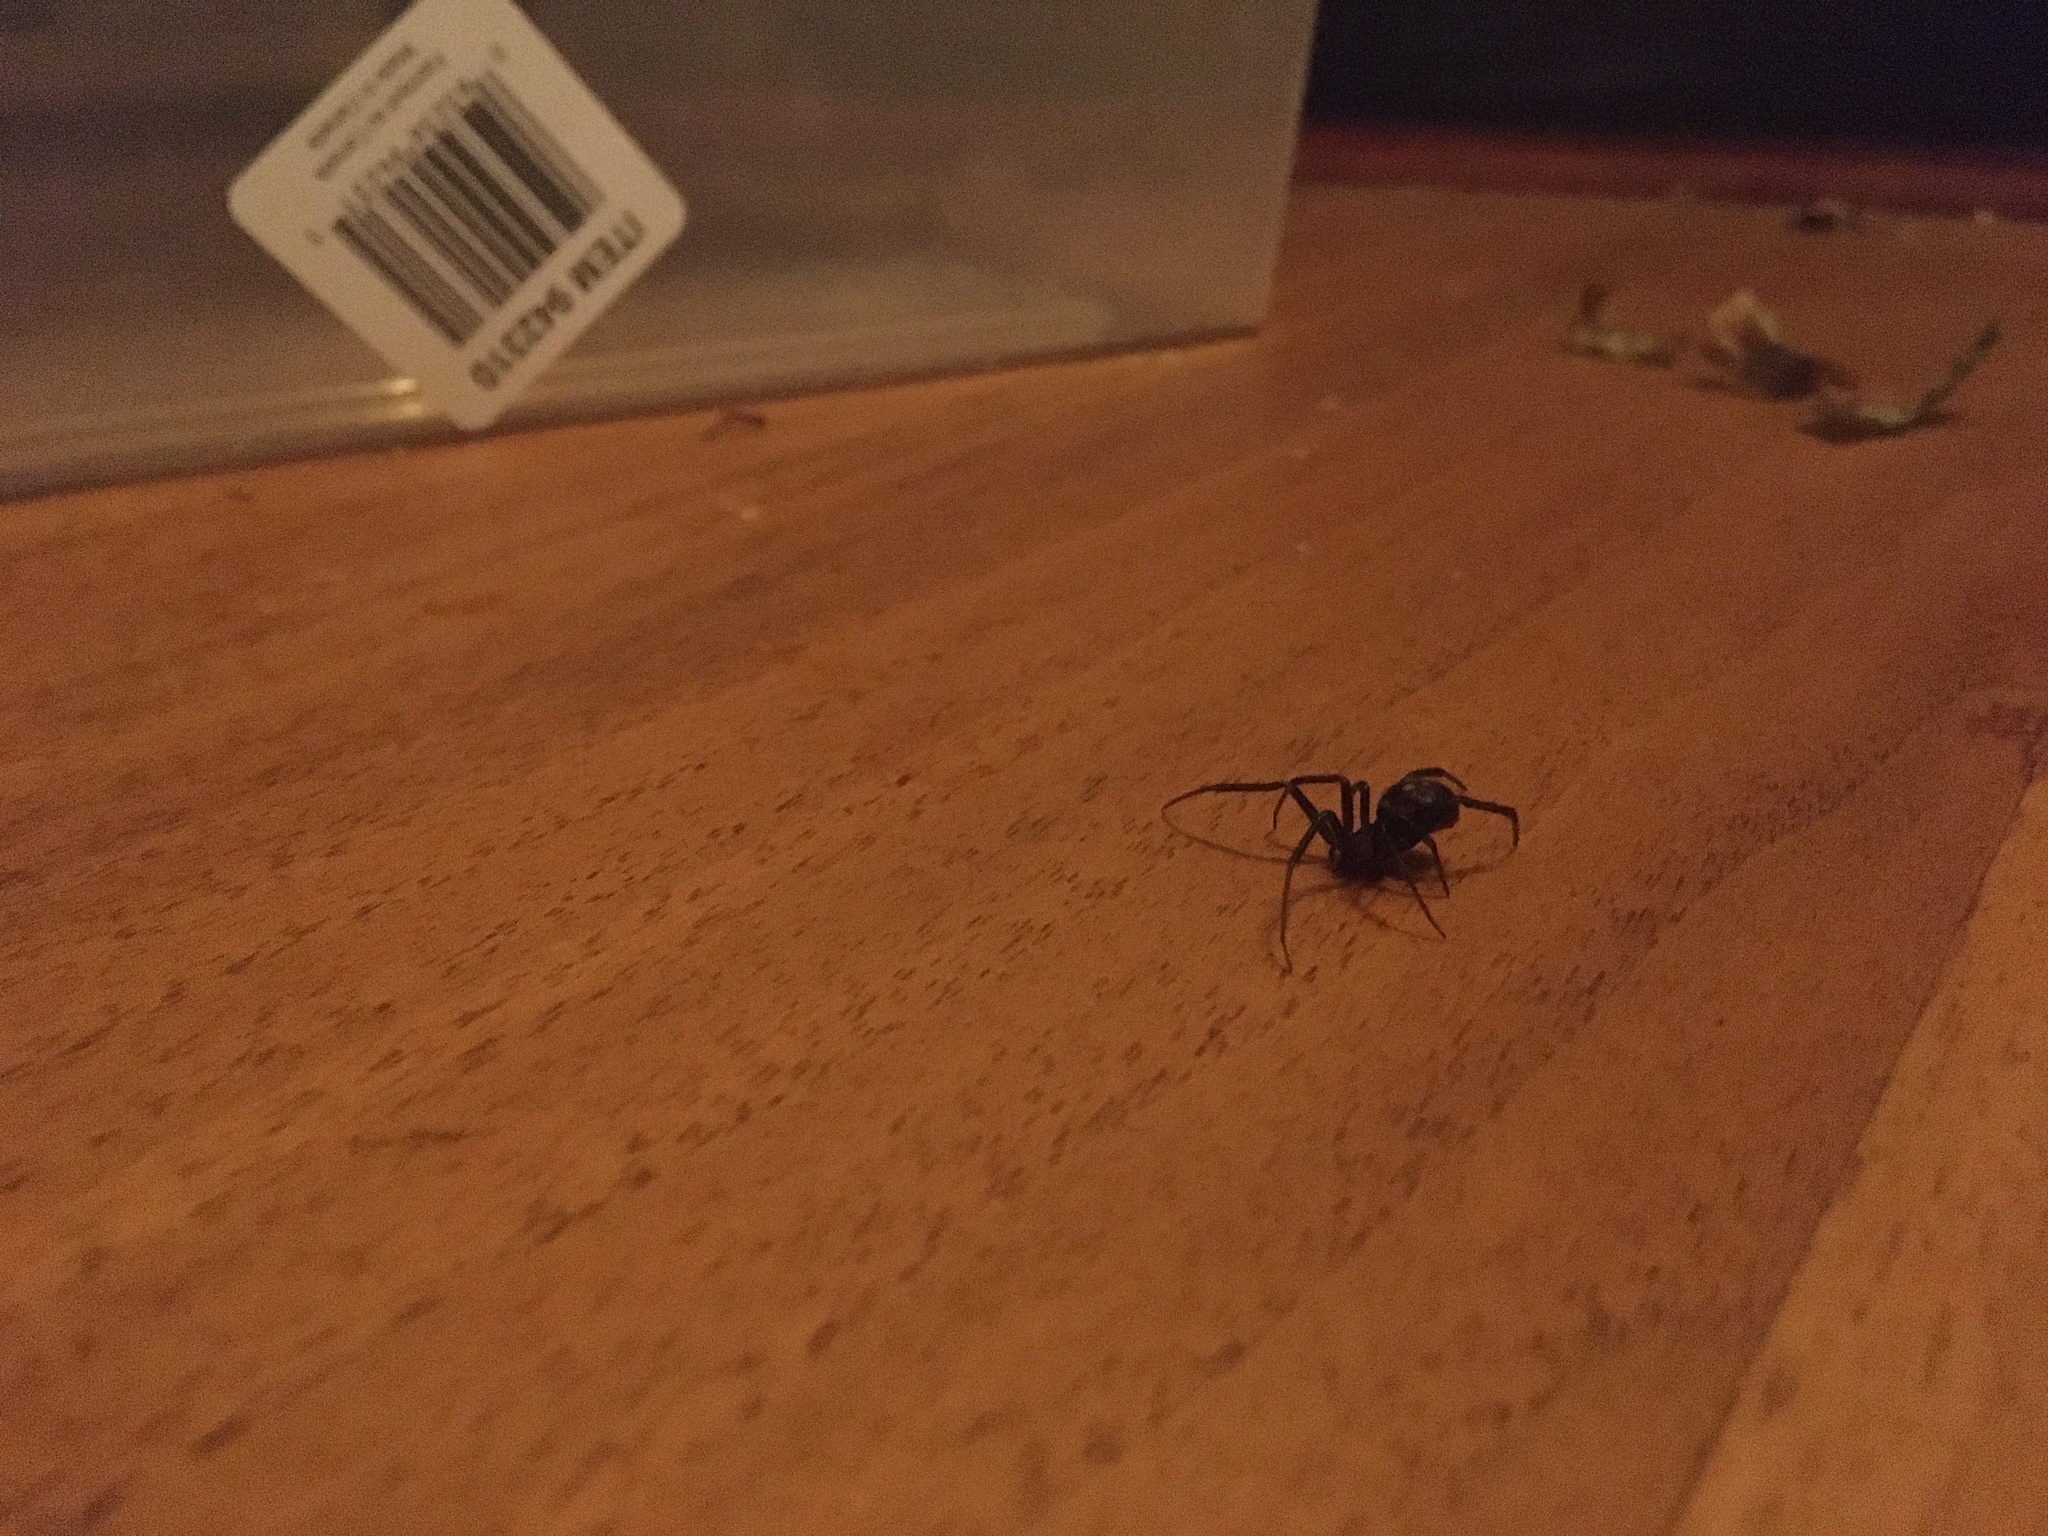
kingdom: Animalia
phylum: Arthropoda
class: Arachnida
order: Araneae
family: Theridiidae
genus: Steatoda
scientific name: Steatoda grossa
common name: False black widow
